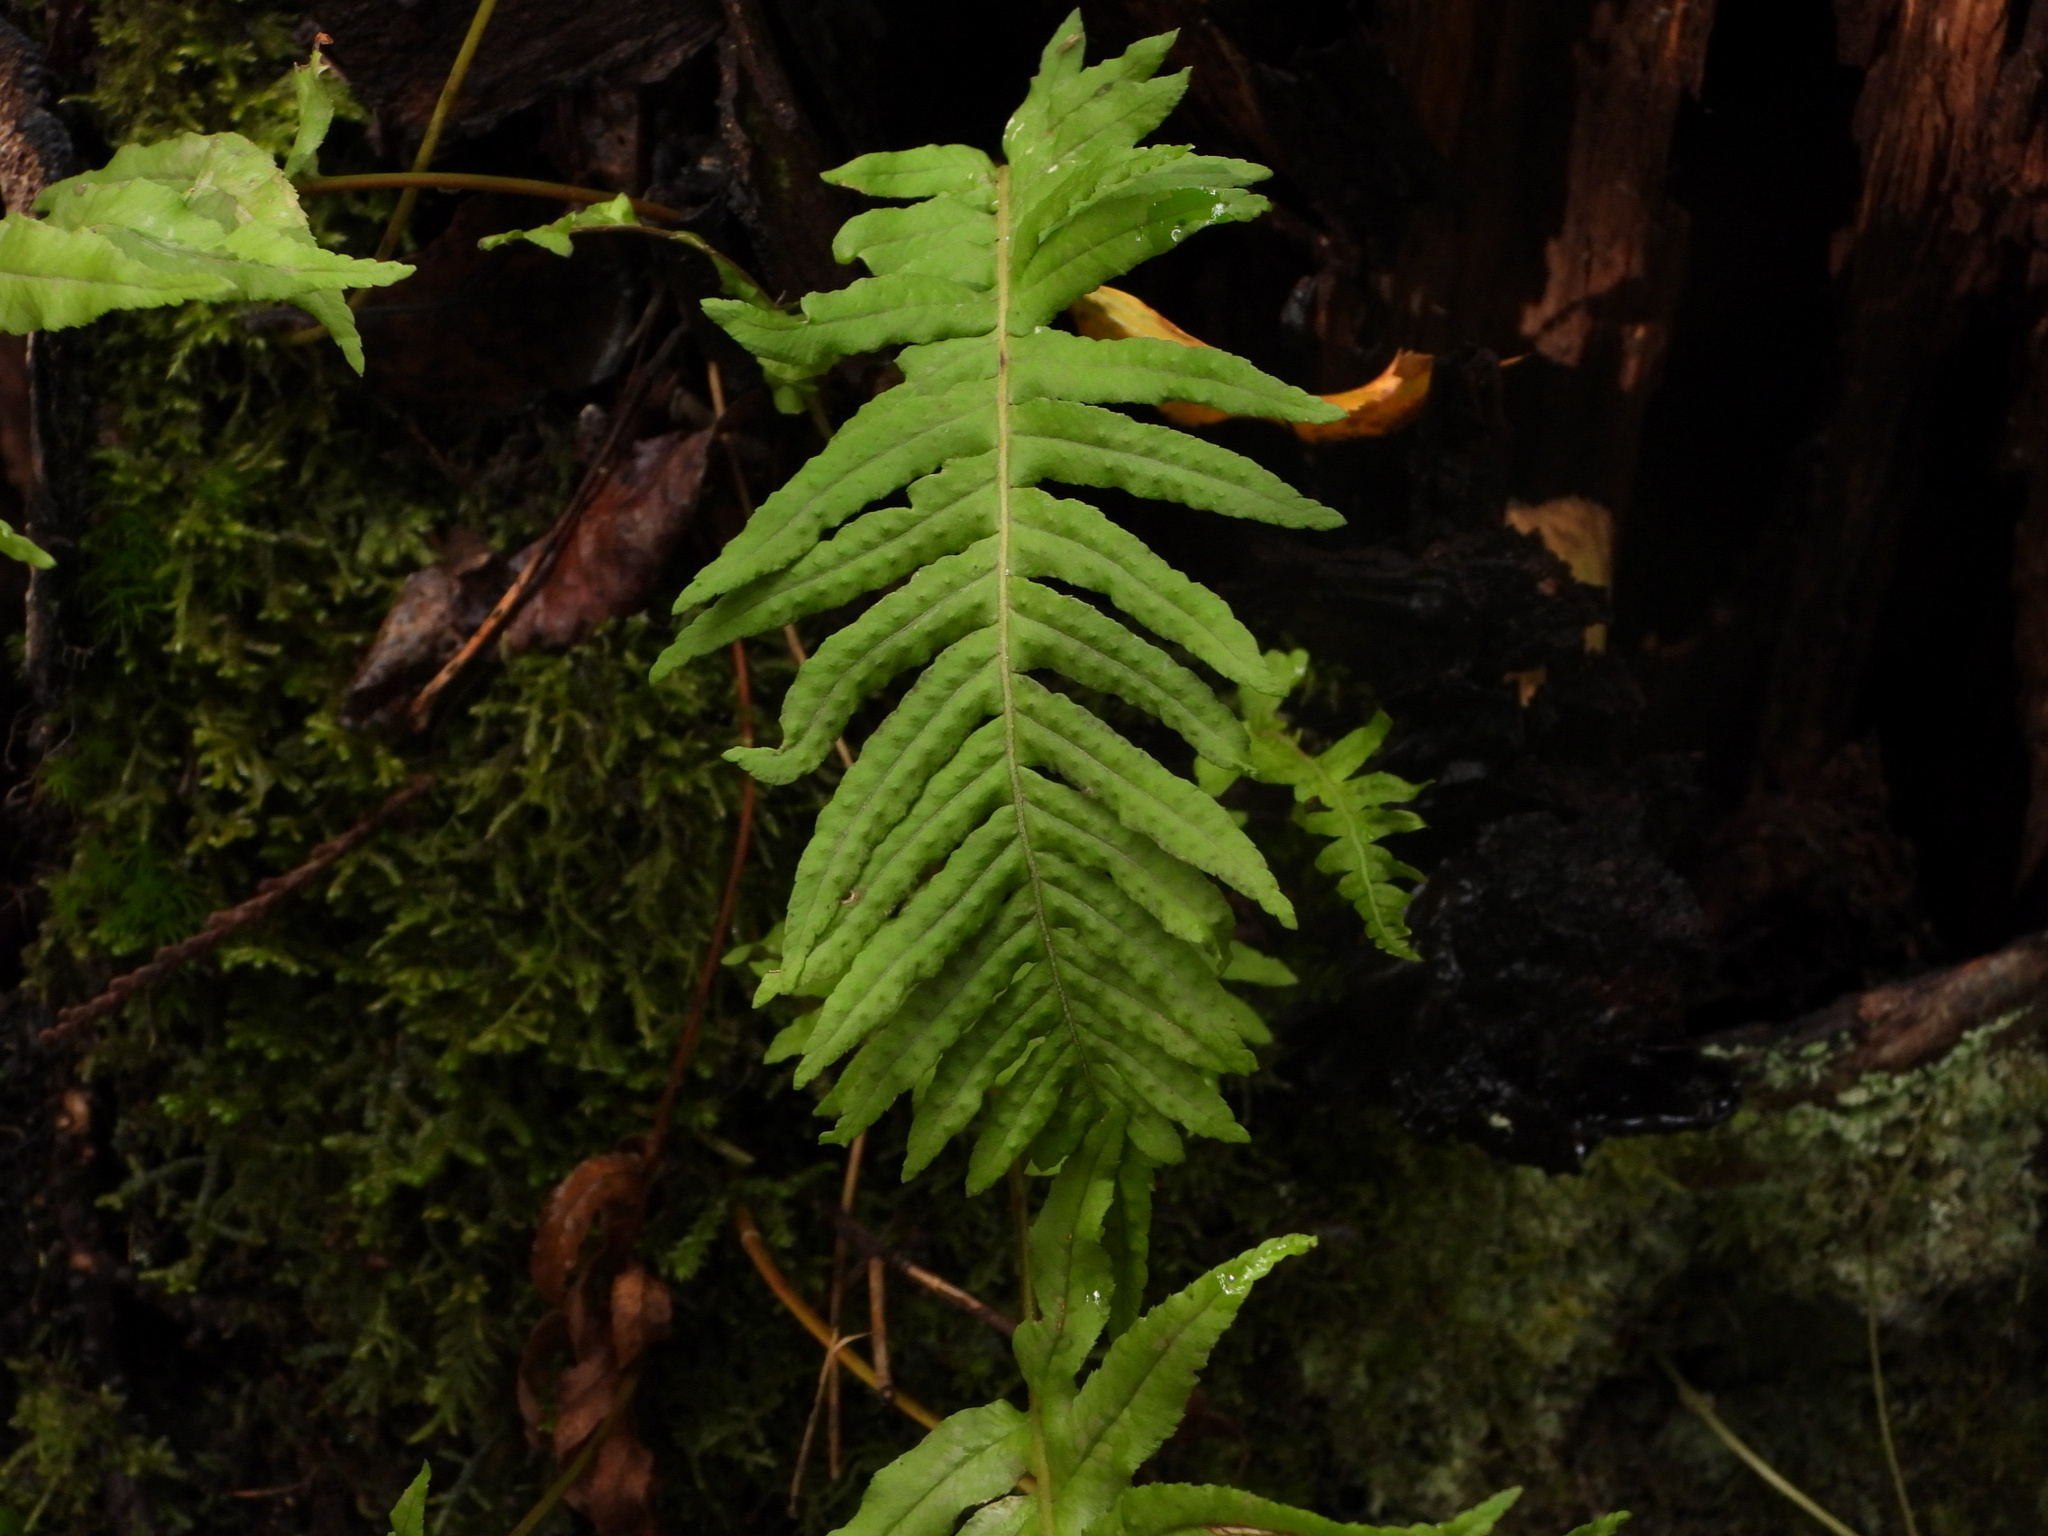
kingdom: Plantae
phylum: Tracheophyta
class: Polypodiopsida
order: Polypodiales
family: Polypodiaceae
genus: Polypodium
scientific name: Polypodium glycyrrhiza
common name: Licorice fern
